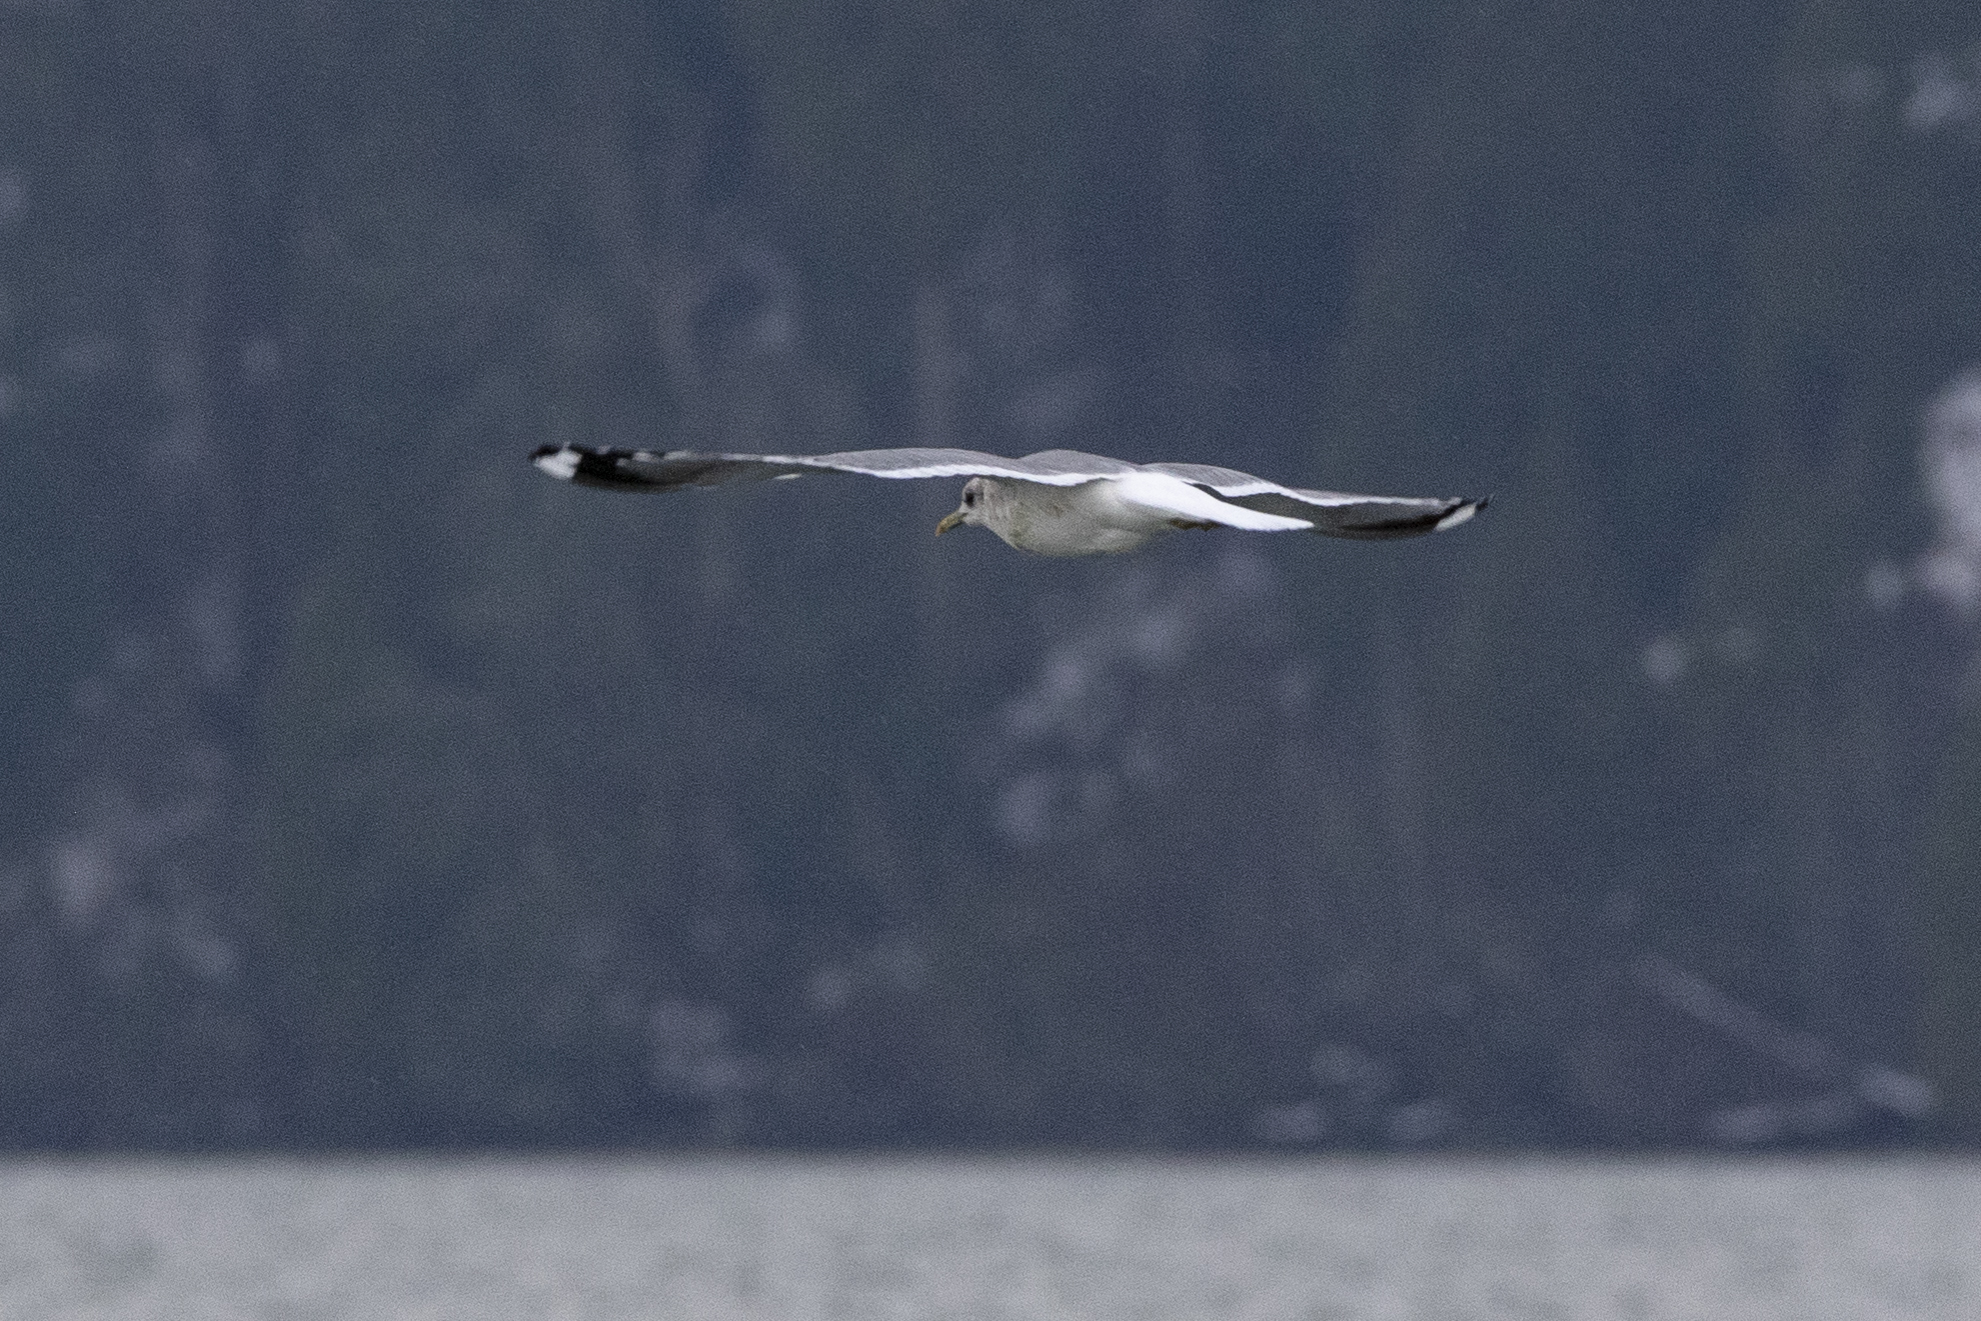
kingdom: Animalia
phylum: Chordata
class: Aves
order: Charadriiformes
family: Laridae
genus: Larus
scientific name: Larus brachyrhynchus
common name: Short-billed gull
